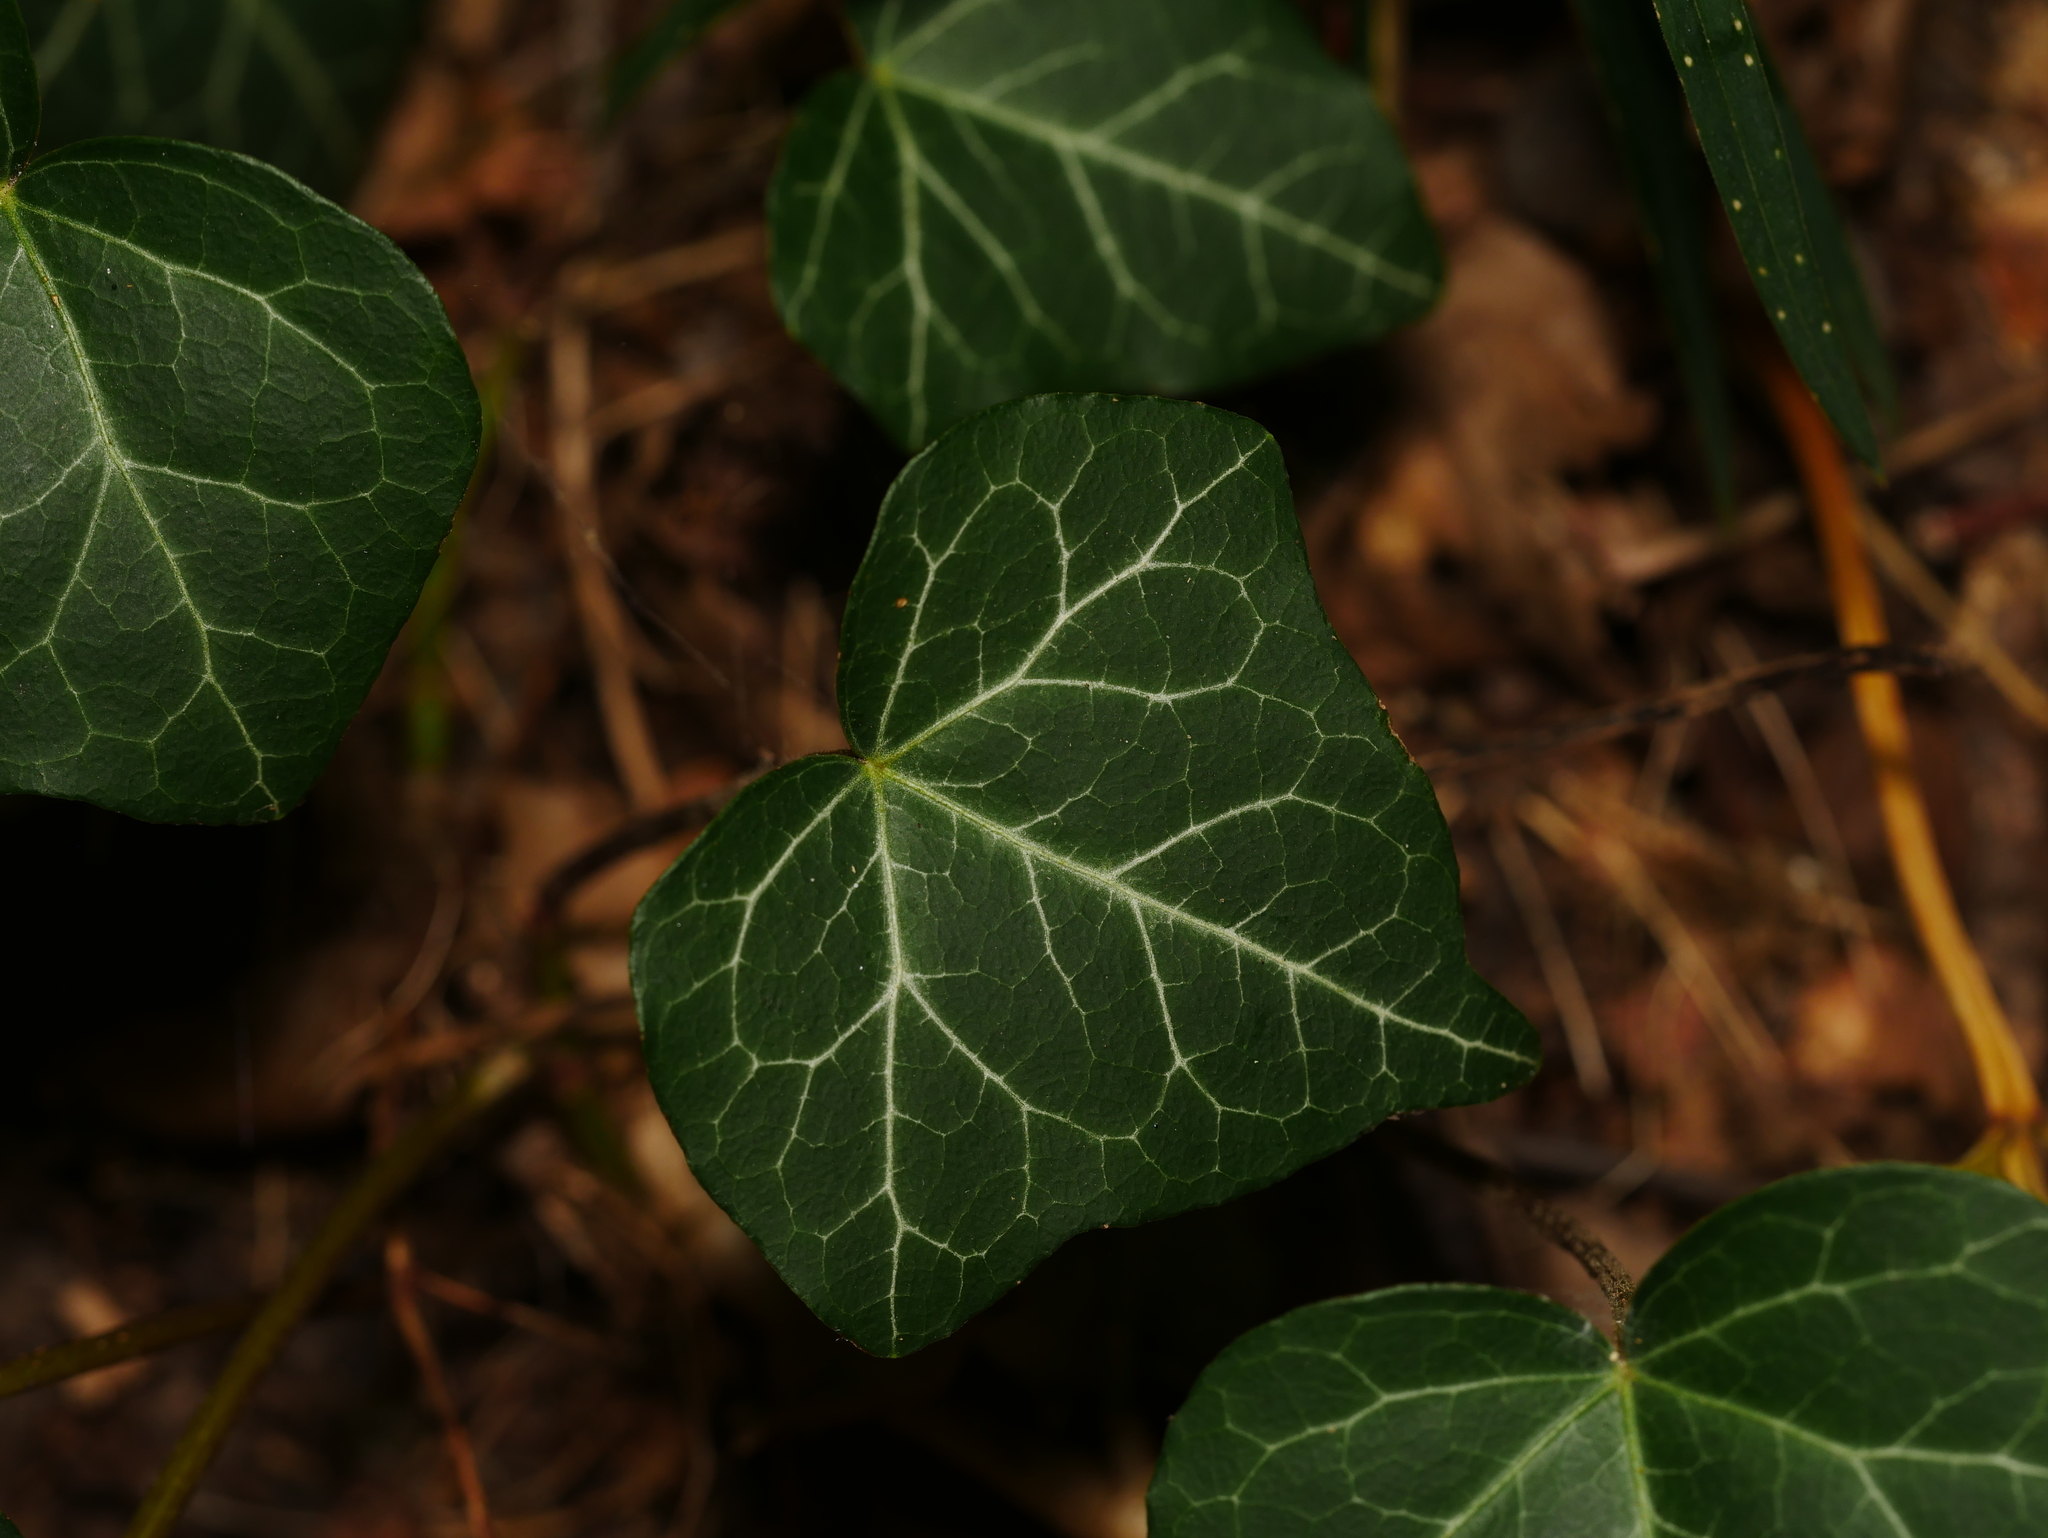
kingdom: Plantae
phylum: Tracheophyta
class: Magnoliopsida
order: Apiales
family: Araliaceae
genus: Hedera
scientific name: Hedera helix
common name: Ivy
